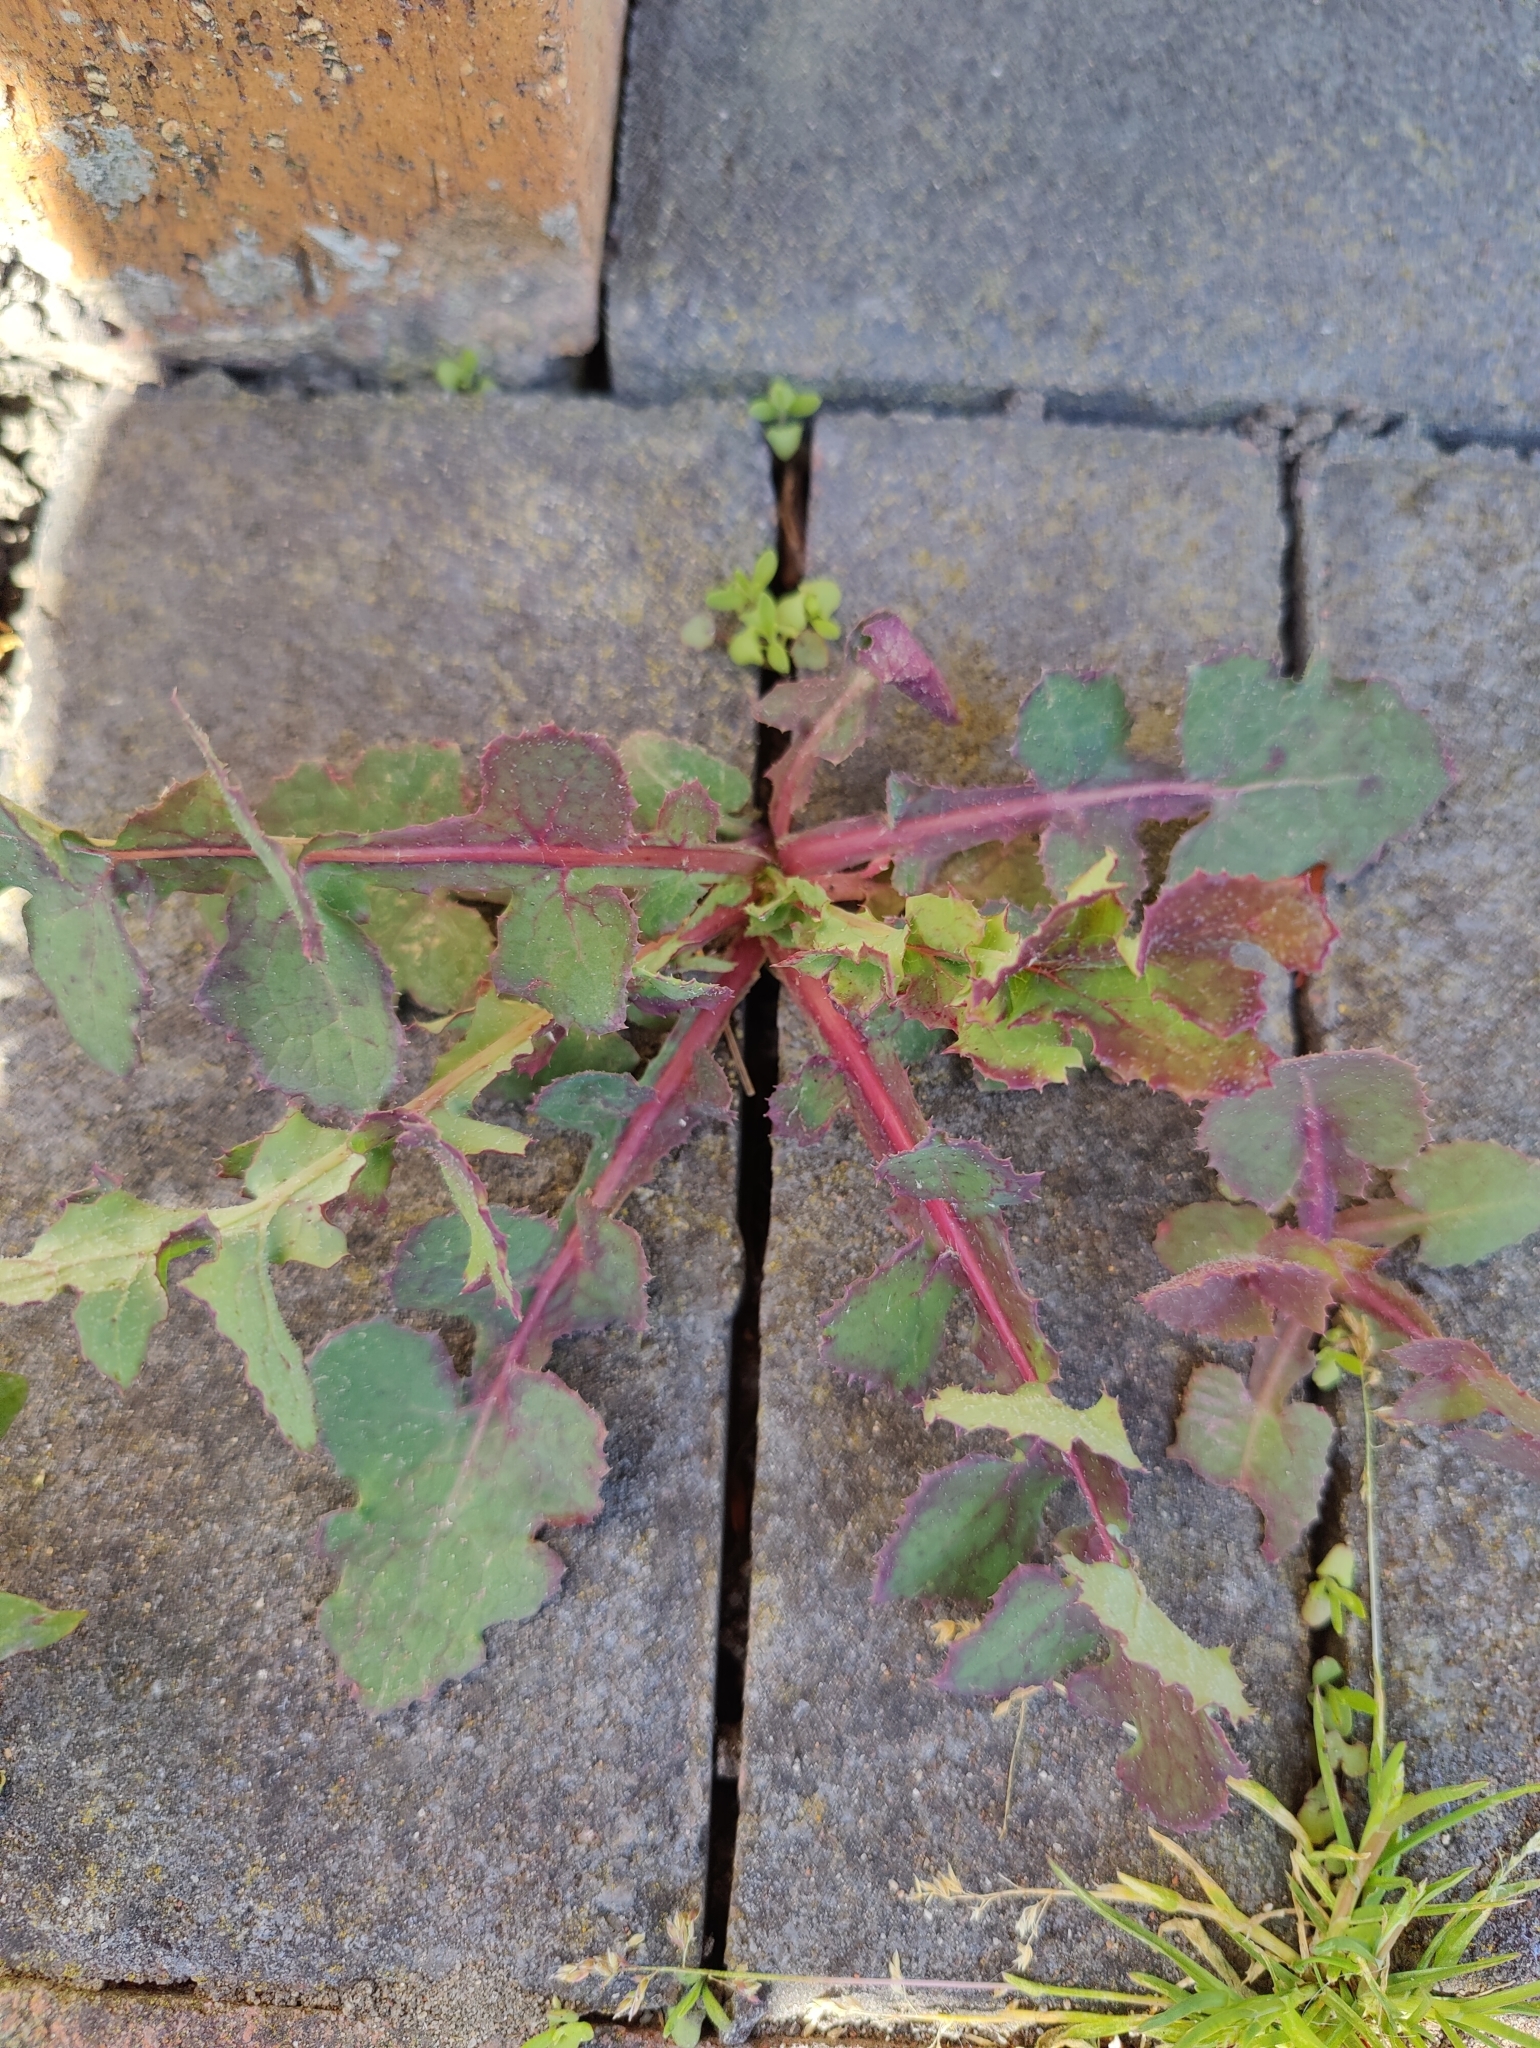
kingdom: Plantae
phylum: Tracheophyta
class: Magnoliopsida
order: Asterales
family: Asteraceae
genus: Sonchus
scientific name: Sonchus oleraceus
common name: Common sowthistle
